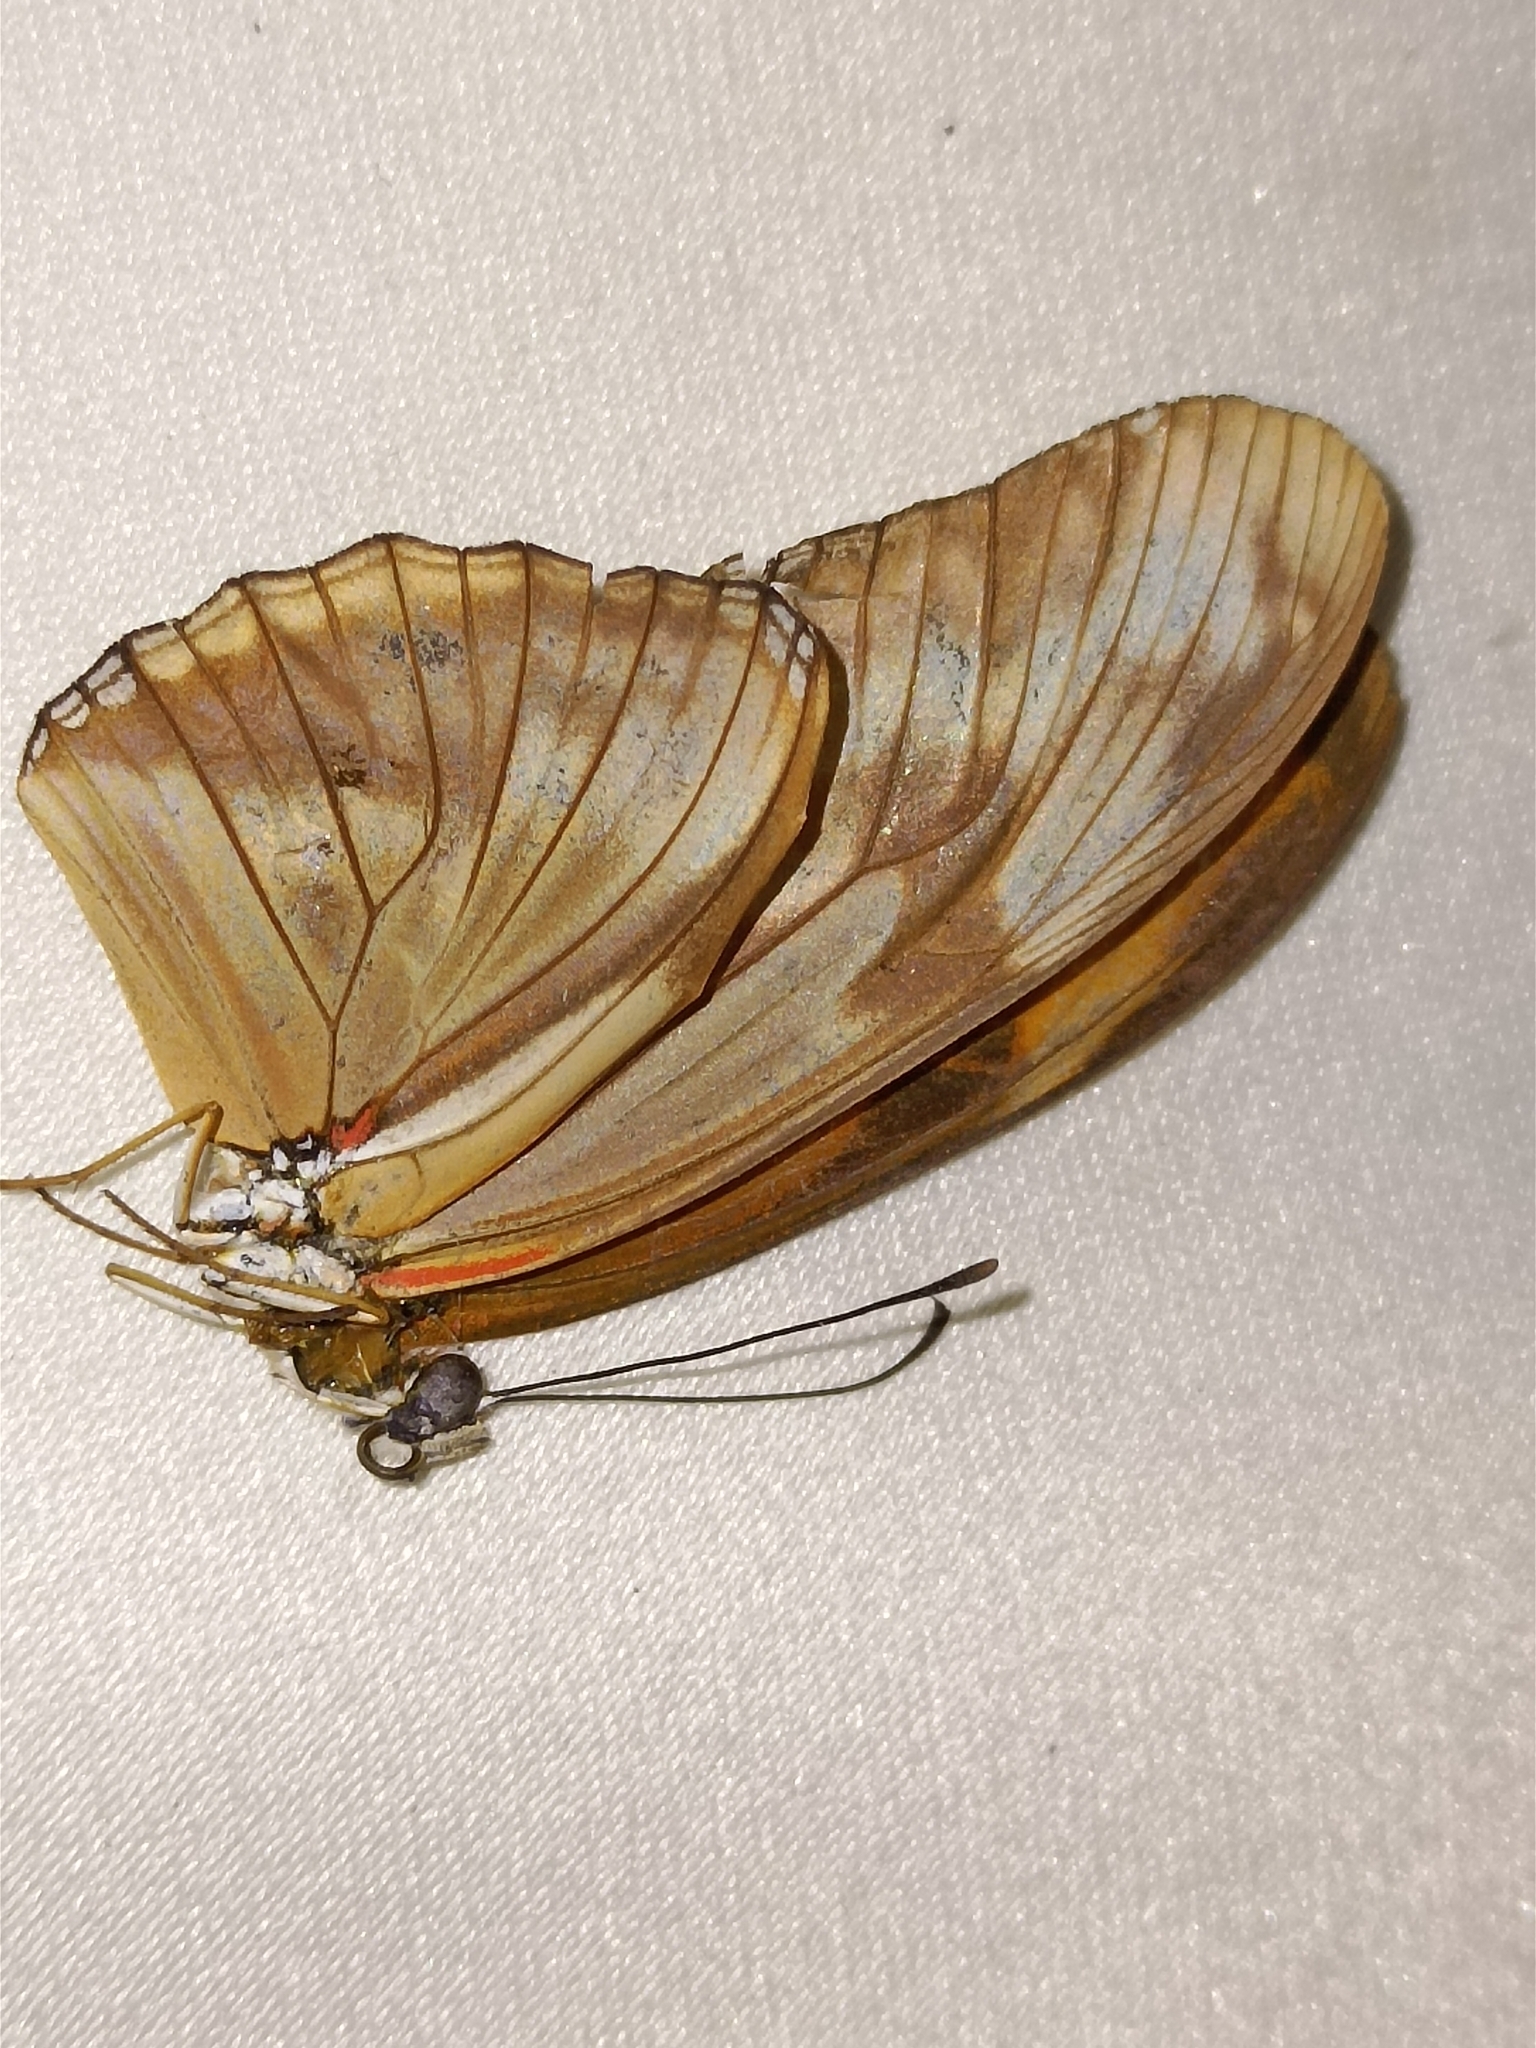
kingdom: Animalia
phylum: Arthropoda
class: Insecta
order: Lepidoptera
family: Nymphalidae
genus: Dryas
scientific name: Dryas iulia
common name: Flambeau
